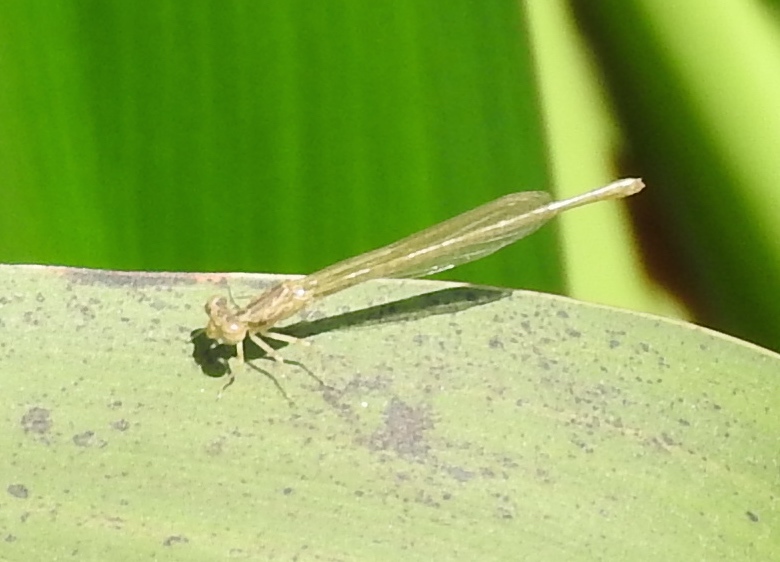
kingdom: Animalia
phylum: Arthropoda
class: Insecta
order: Odonata
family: Coenagrionidae
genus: Telebasis
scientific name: Telebasis
